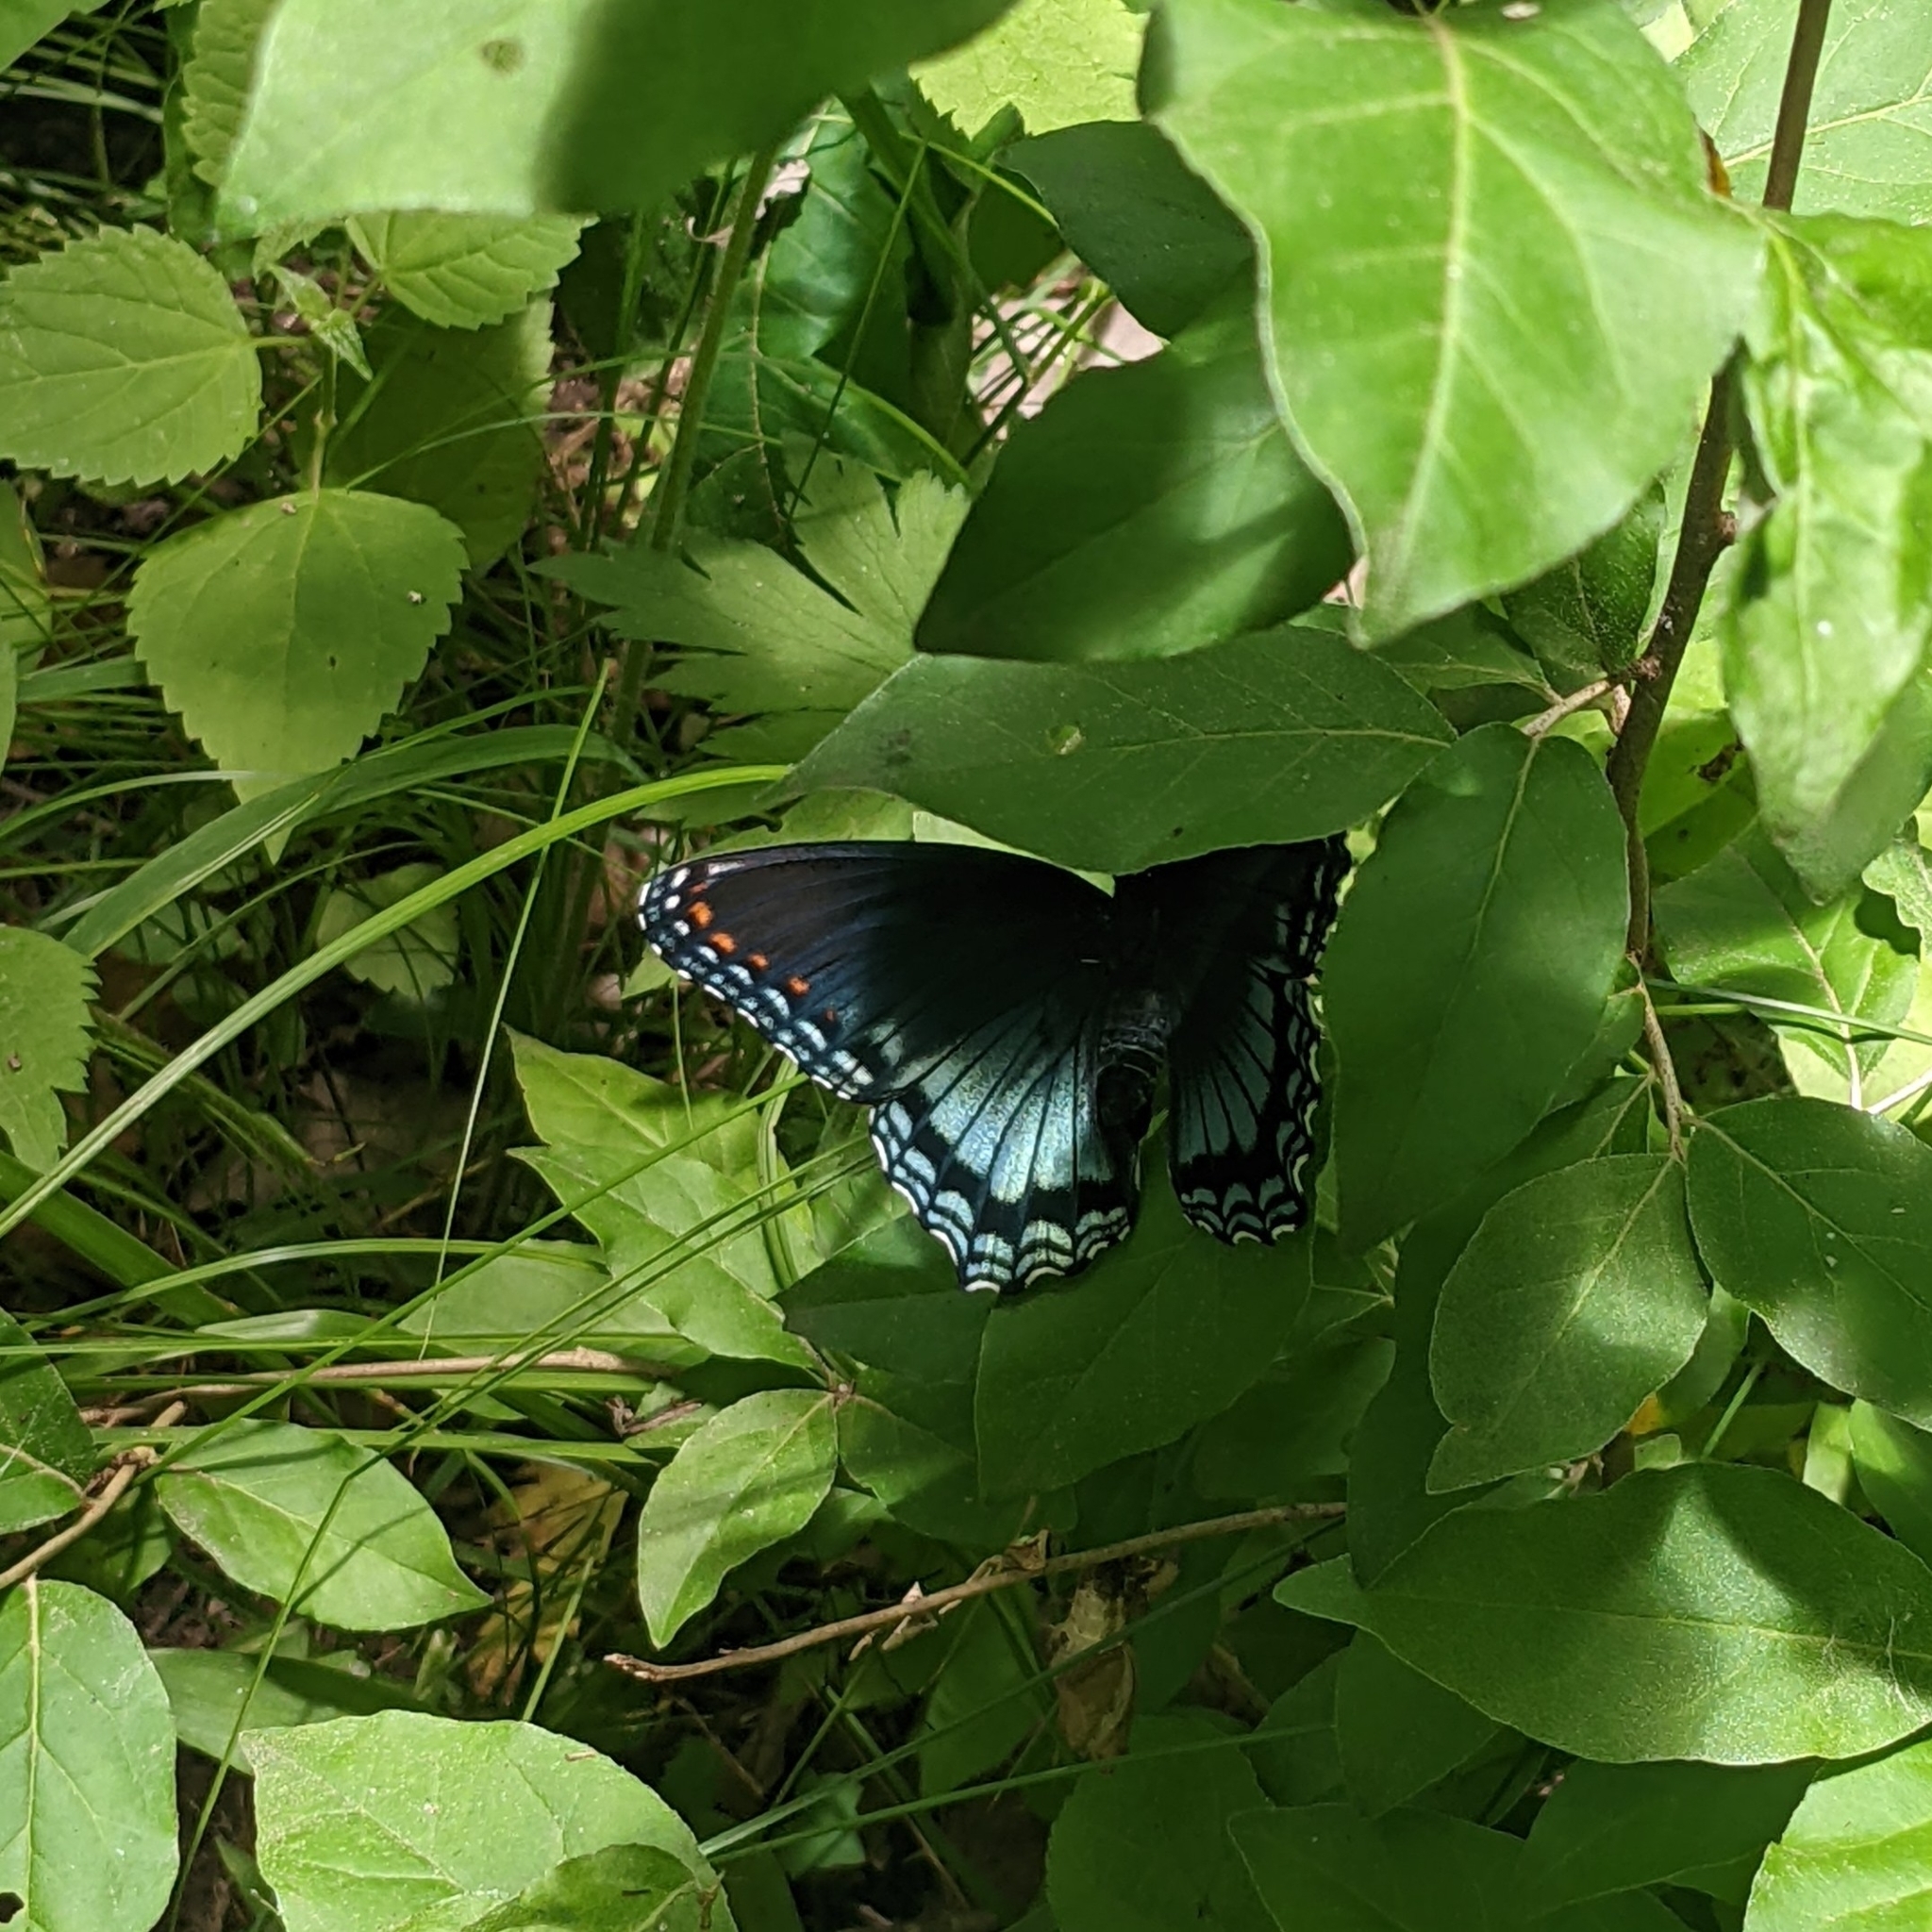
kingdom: Animalia
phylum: Arthropoda
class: Insecta
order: Lepidoptera
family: Nymphalidae
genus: Limenitis
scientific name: Limenitis astyanax
